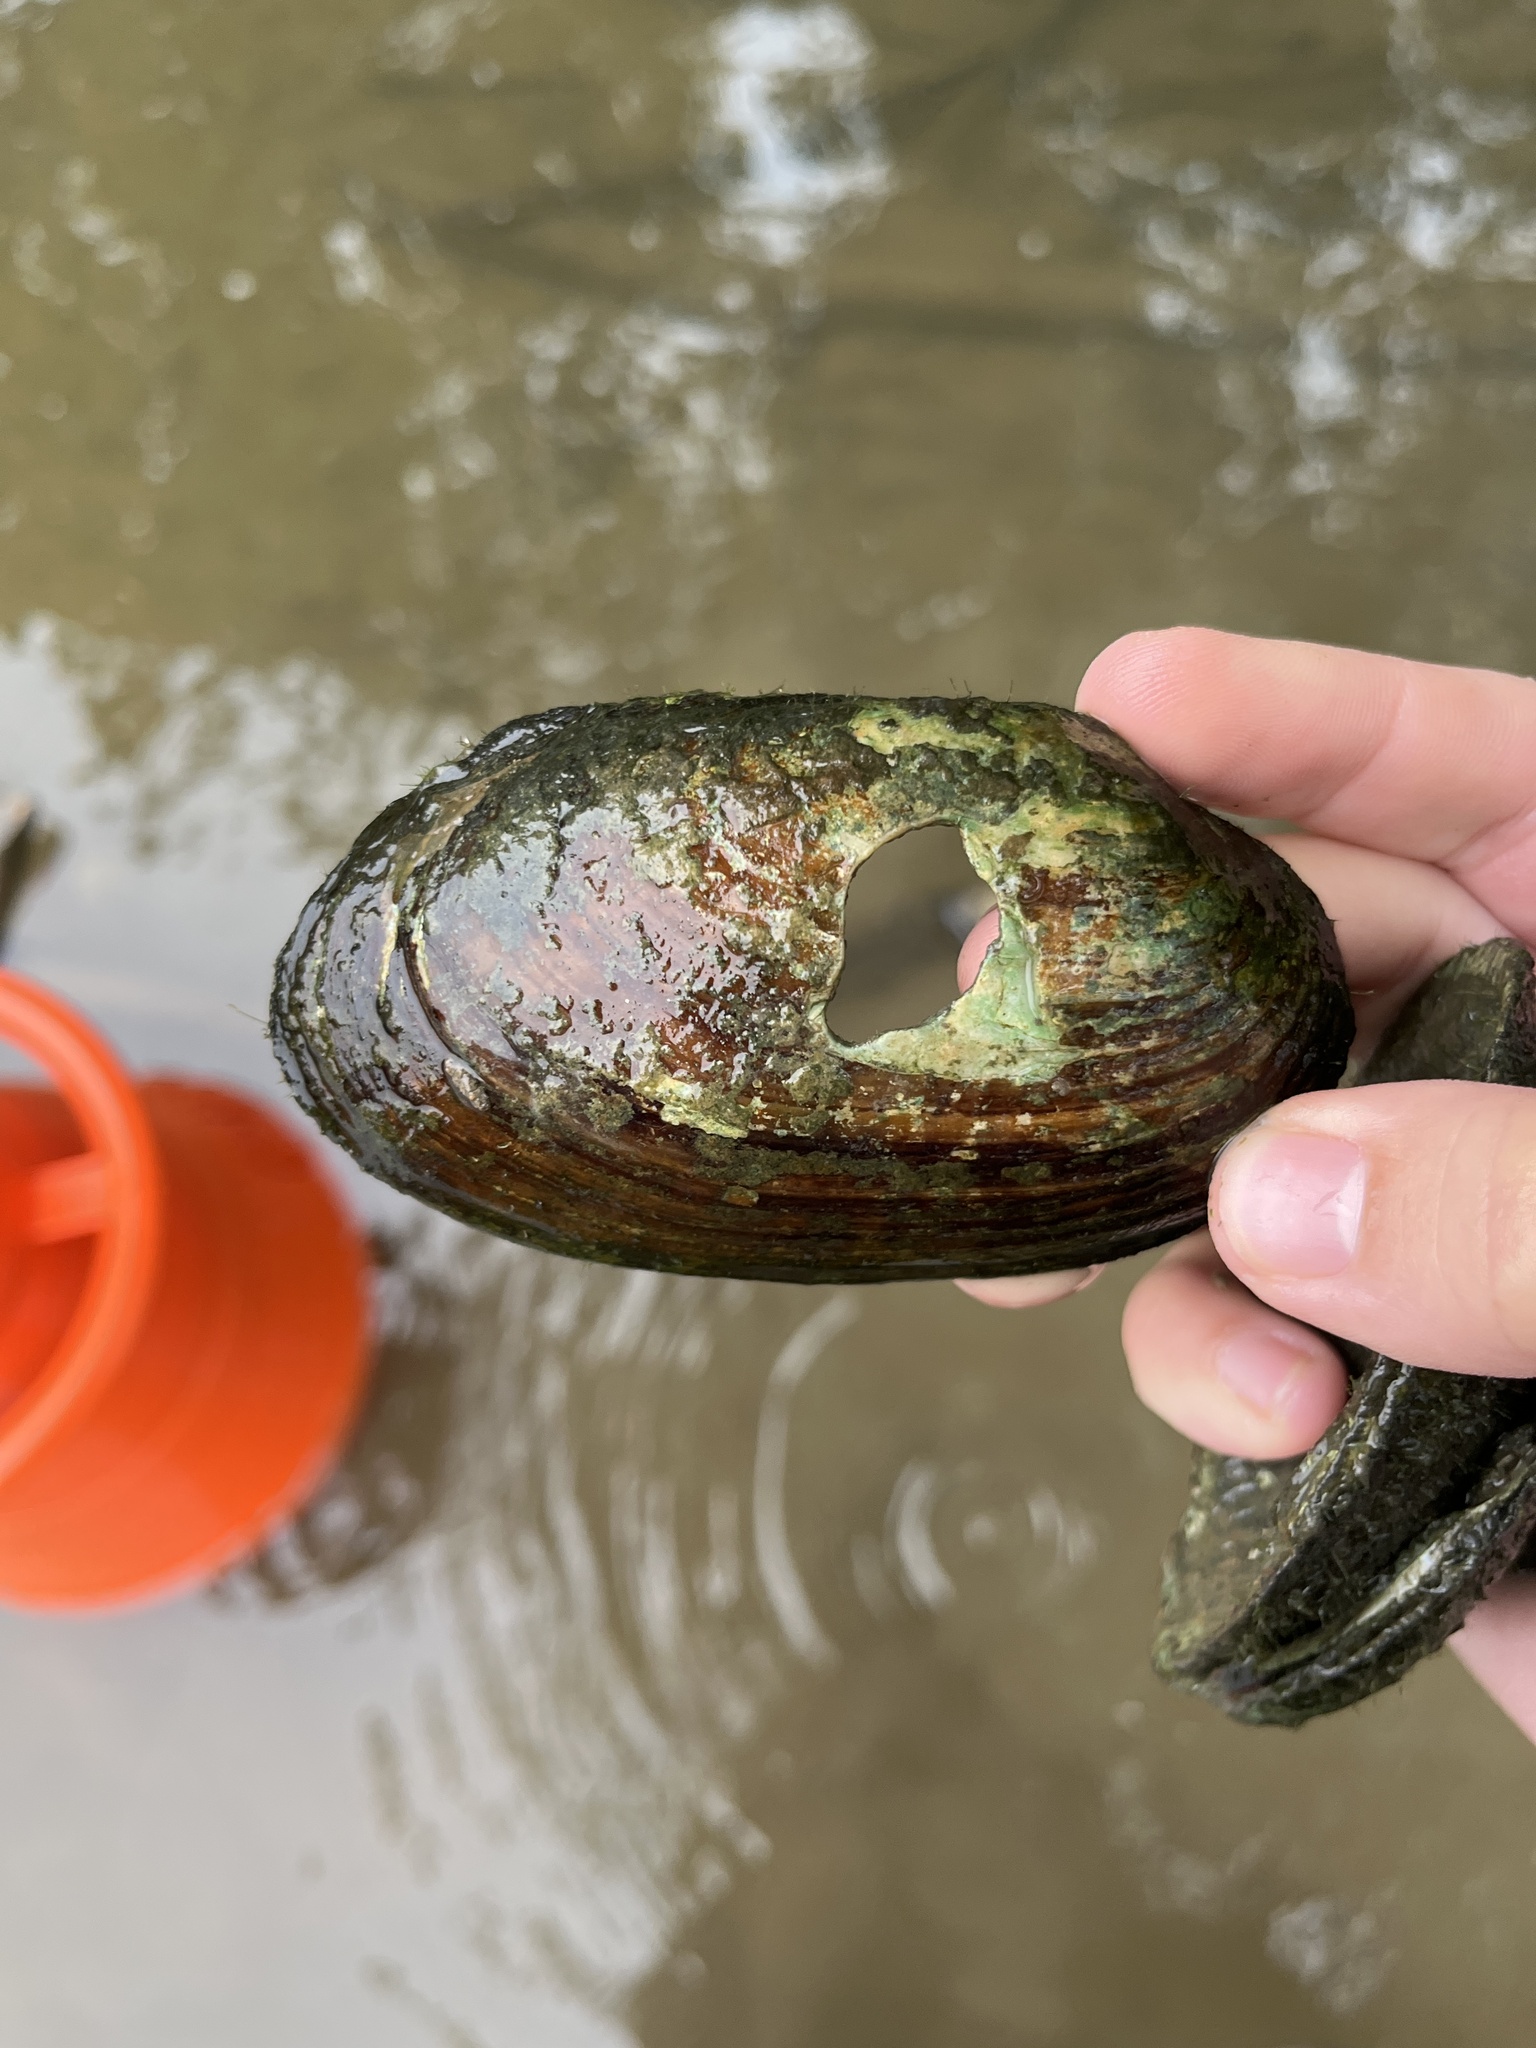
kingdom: Animalia
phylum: Mollusca
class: Bivalvia
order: Unionida
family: Unionidae
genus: Lampsilis
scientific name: Lampsilis siliquoidea
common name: Fatmucket
